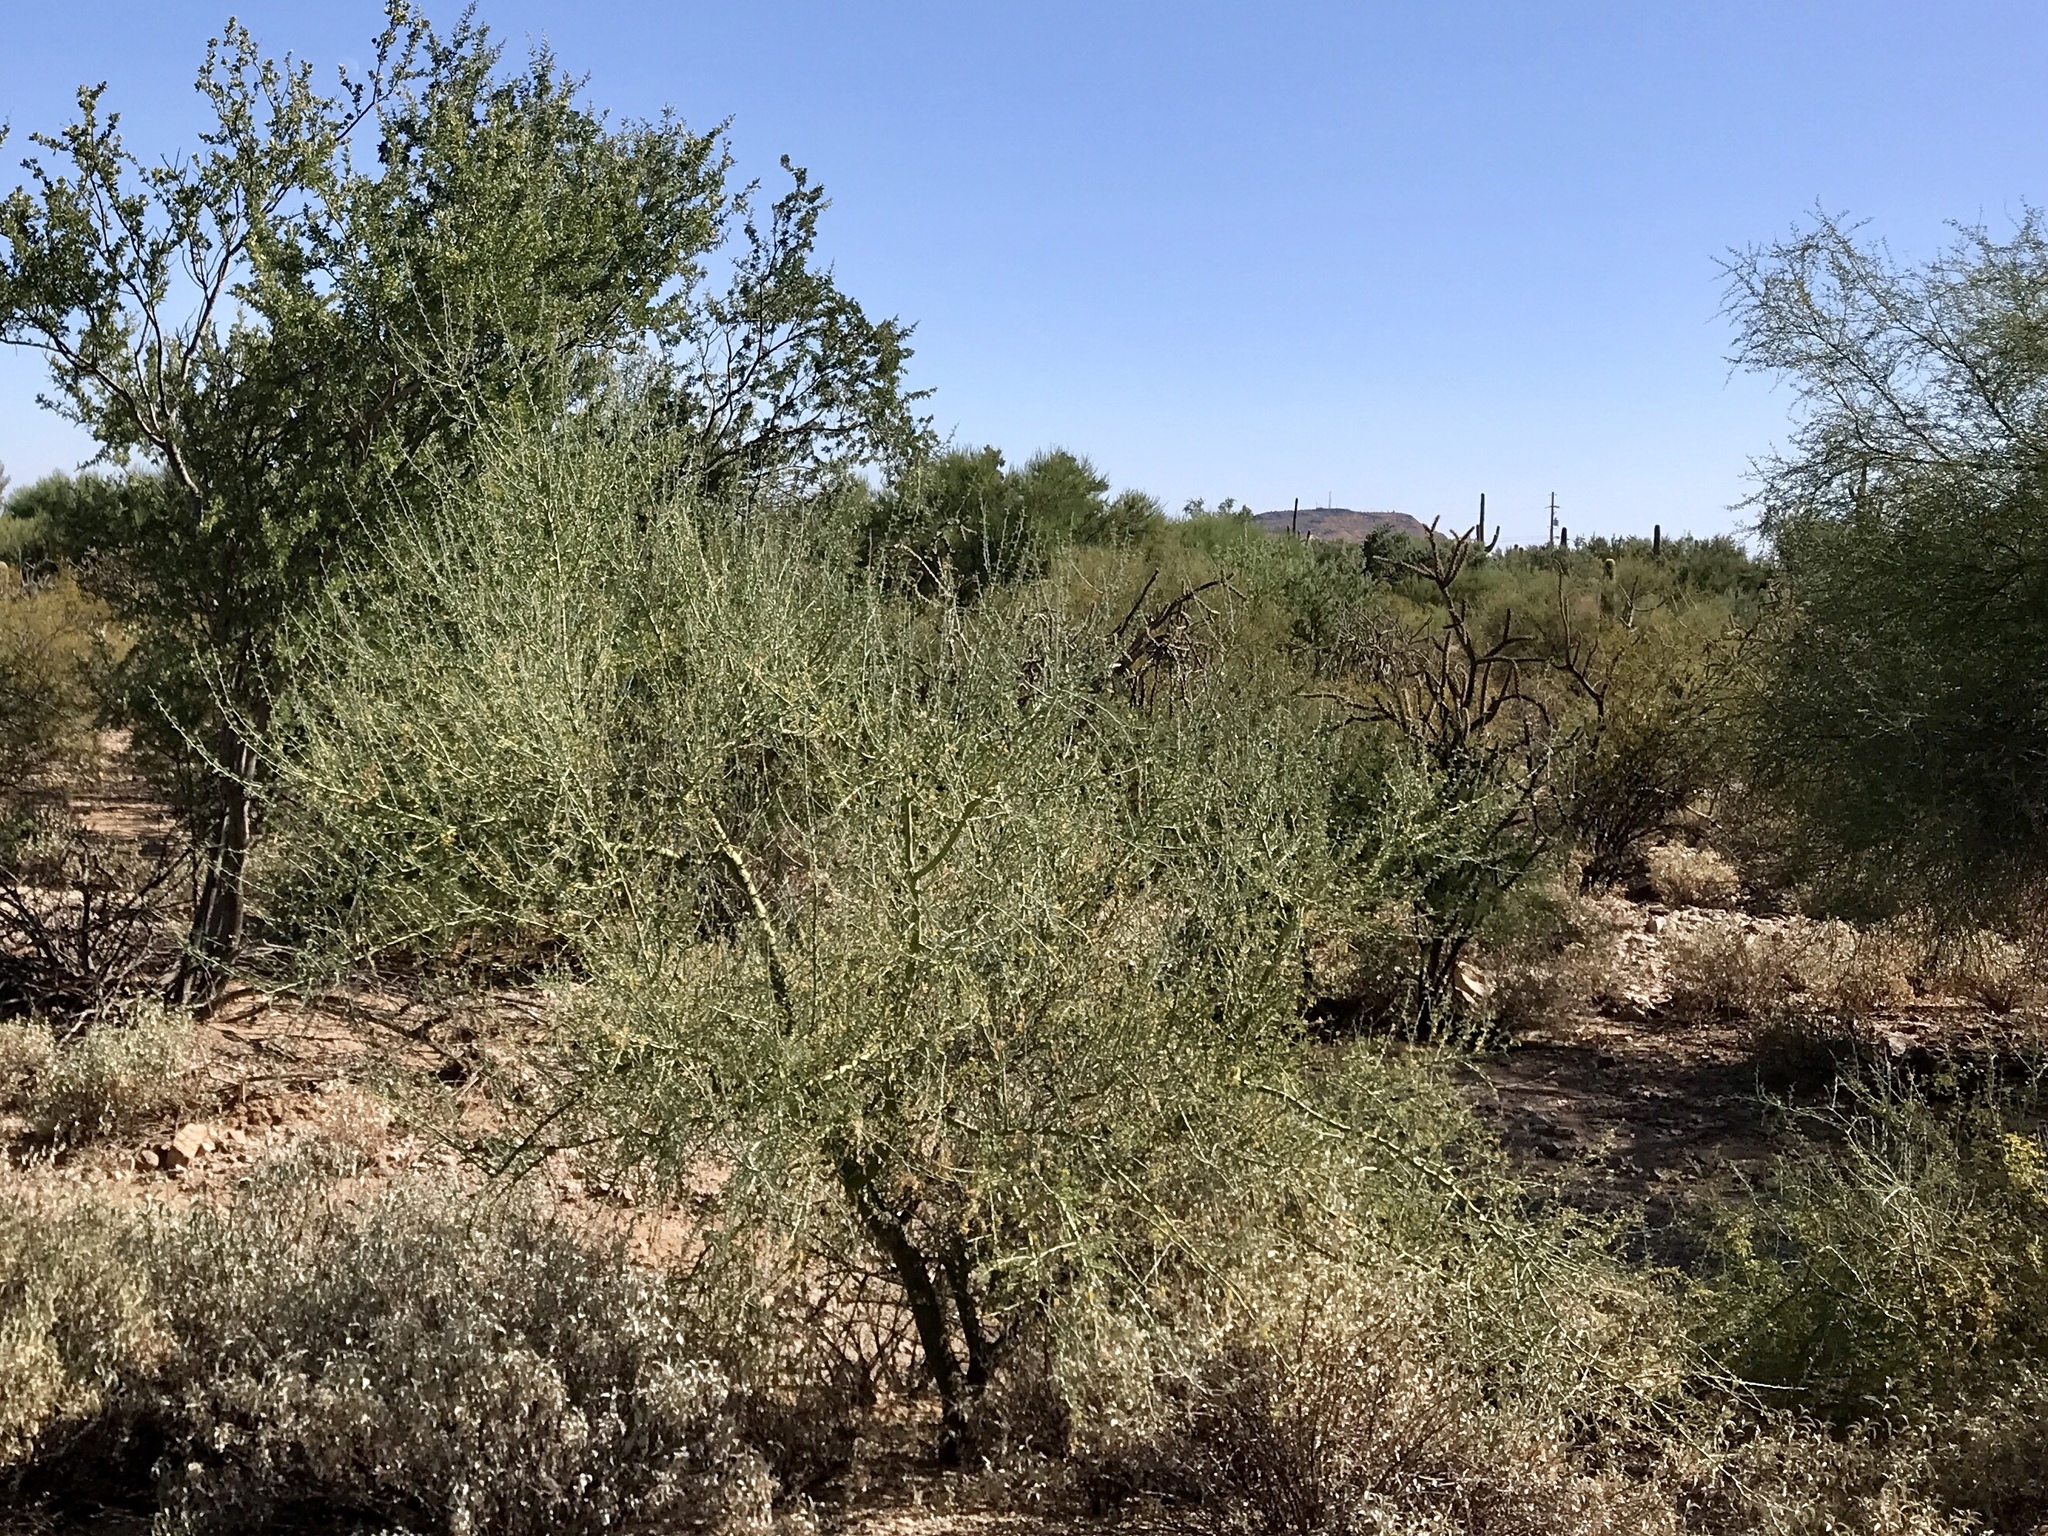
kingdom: Plantae
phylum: Tracheophyta
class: Magnoliopsida
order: Fabales
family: Fabaceae
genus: Parkinsonia
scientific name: Parkinsonia florida
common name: Blue paloverde
